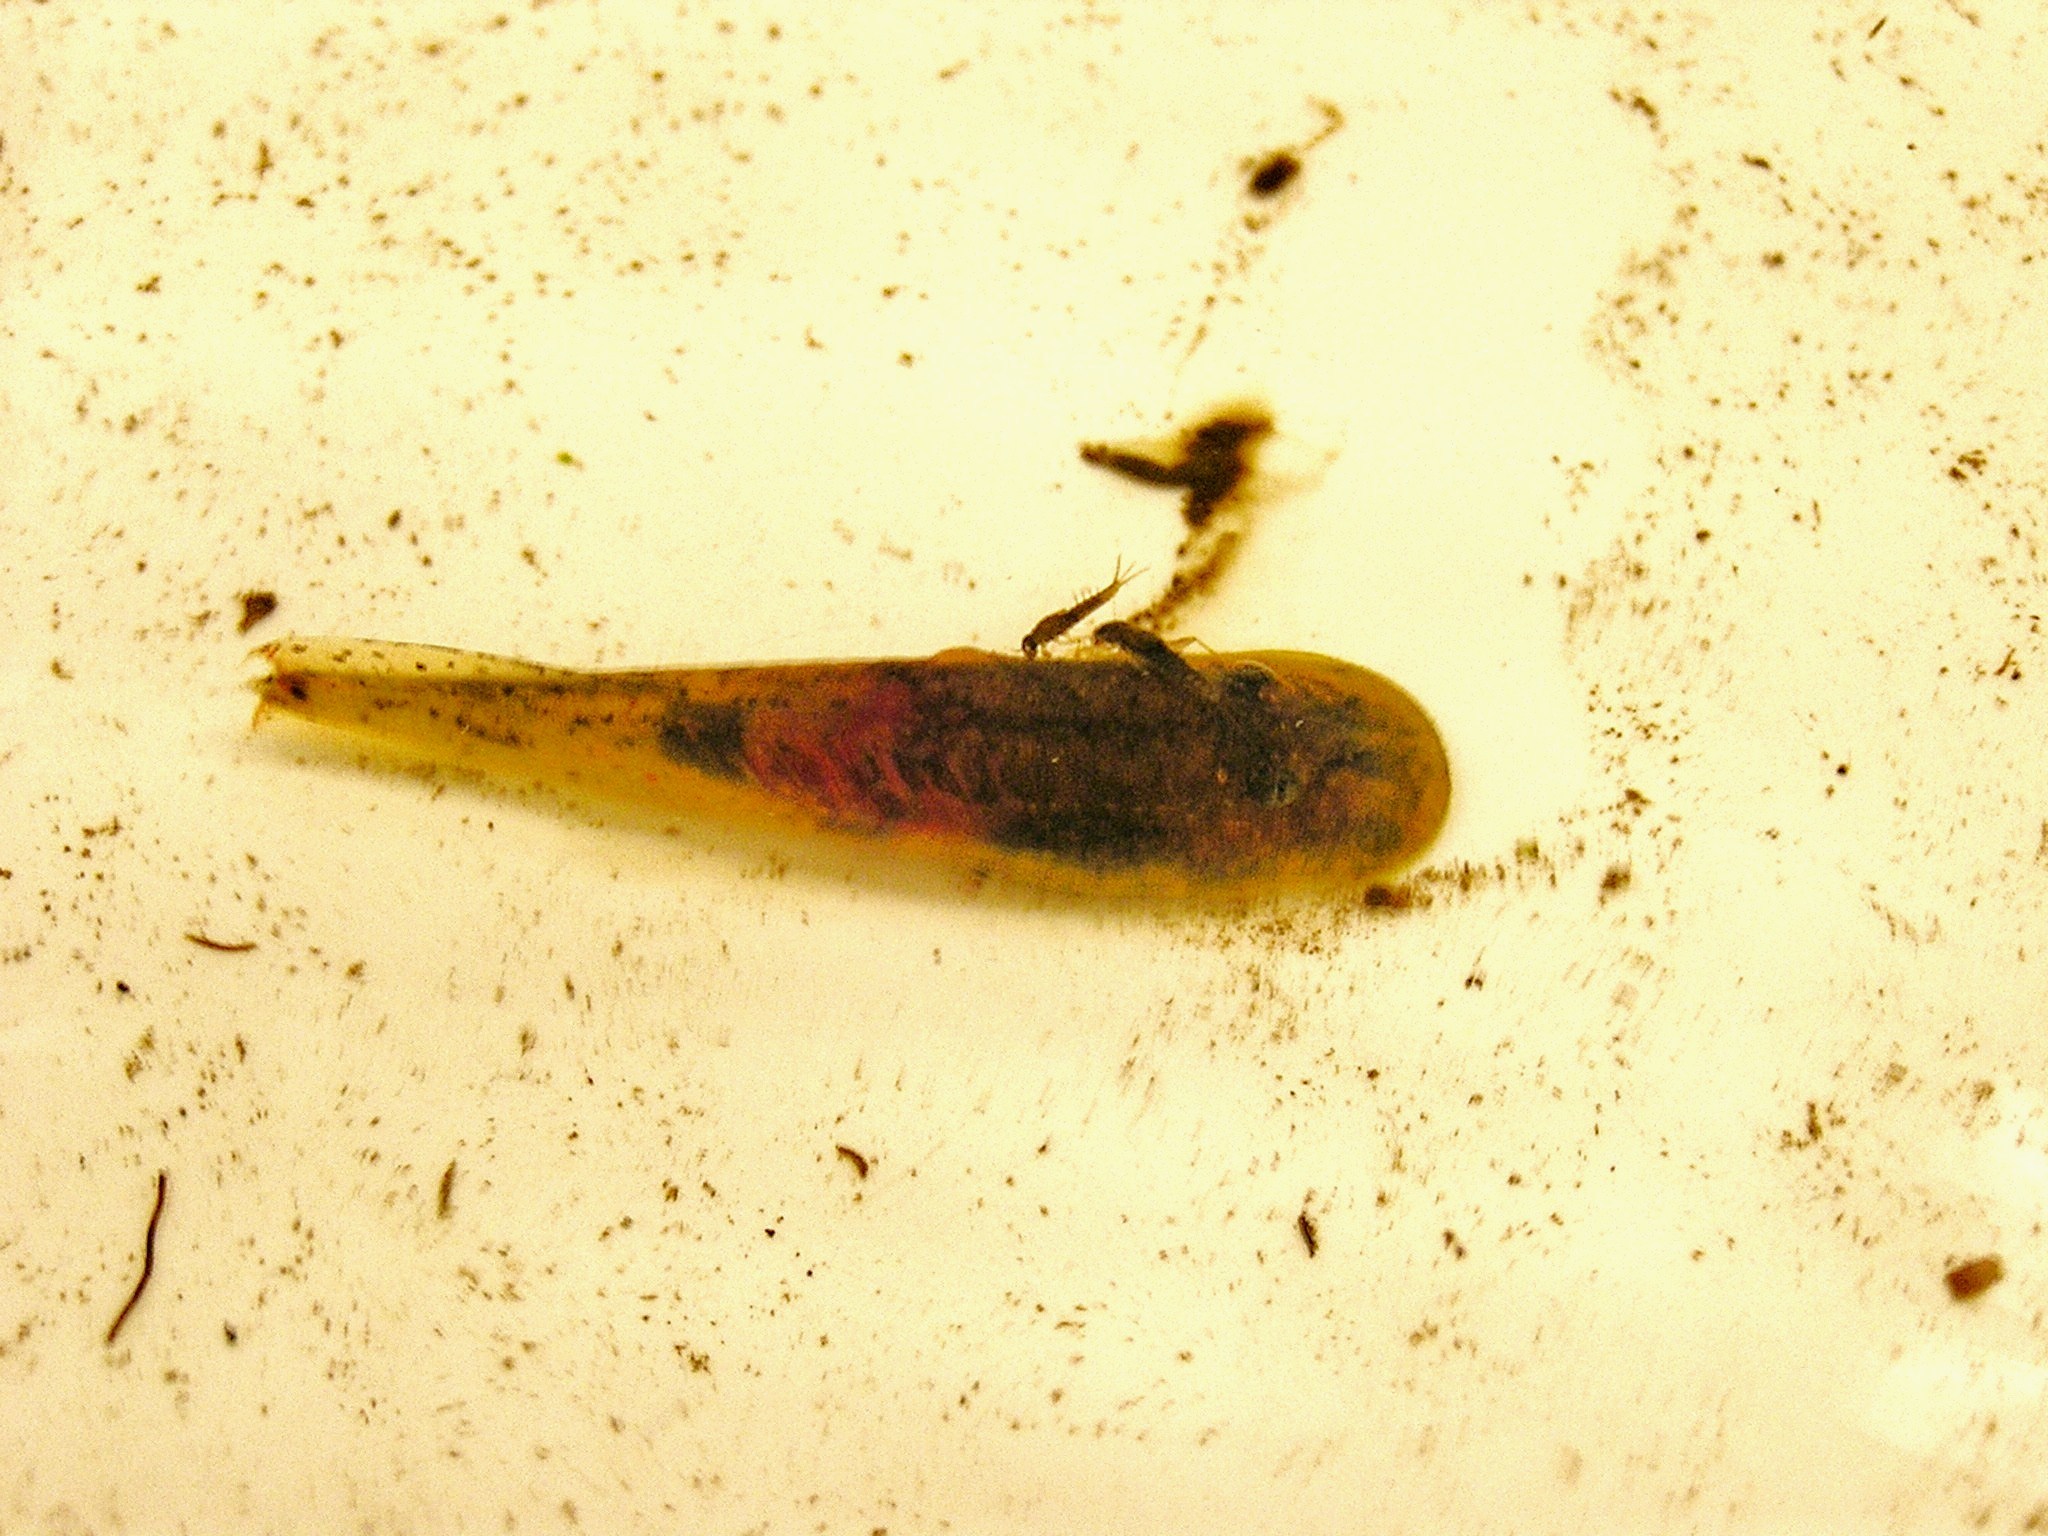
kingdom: Animalia
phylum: Chordata
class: Amphibia
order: Anura
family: Heleophrynidae
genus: Hadromophryne
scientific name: Hadromophryne natalensis
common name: Natal ghost frog
